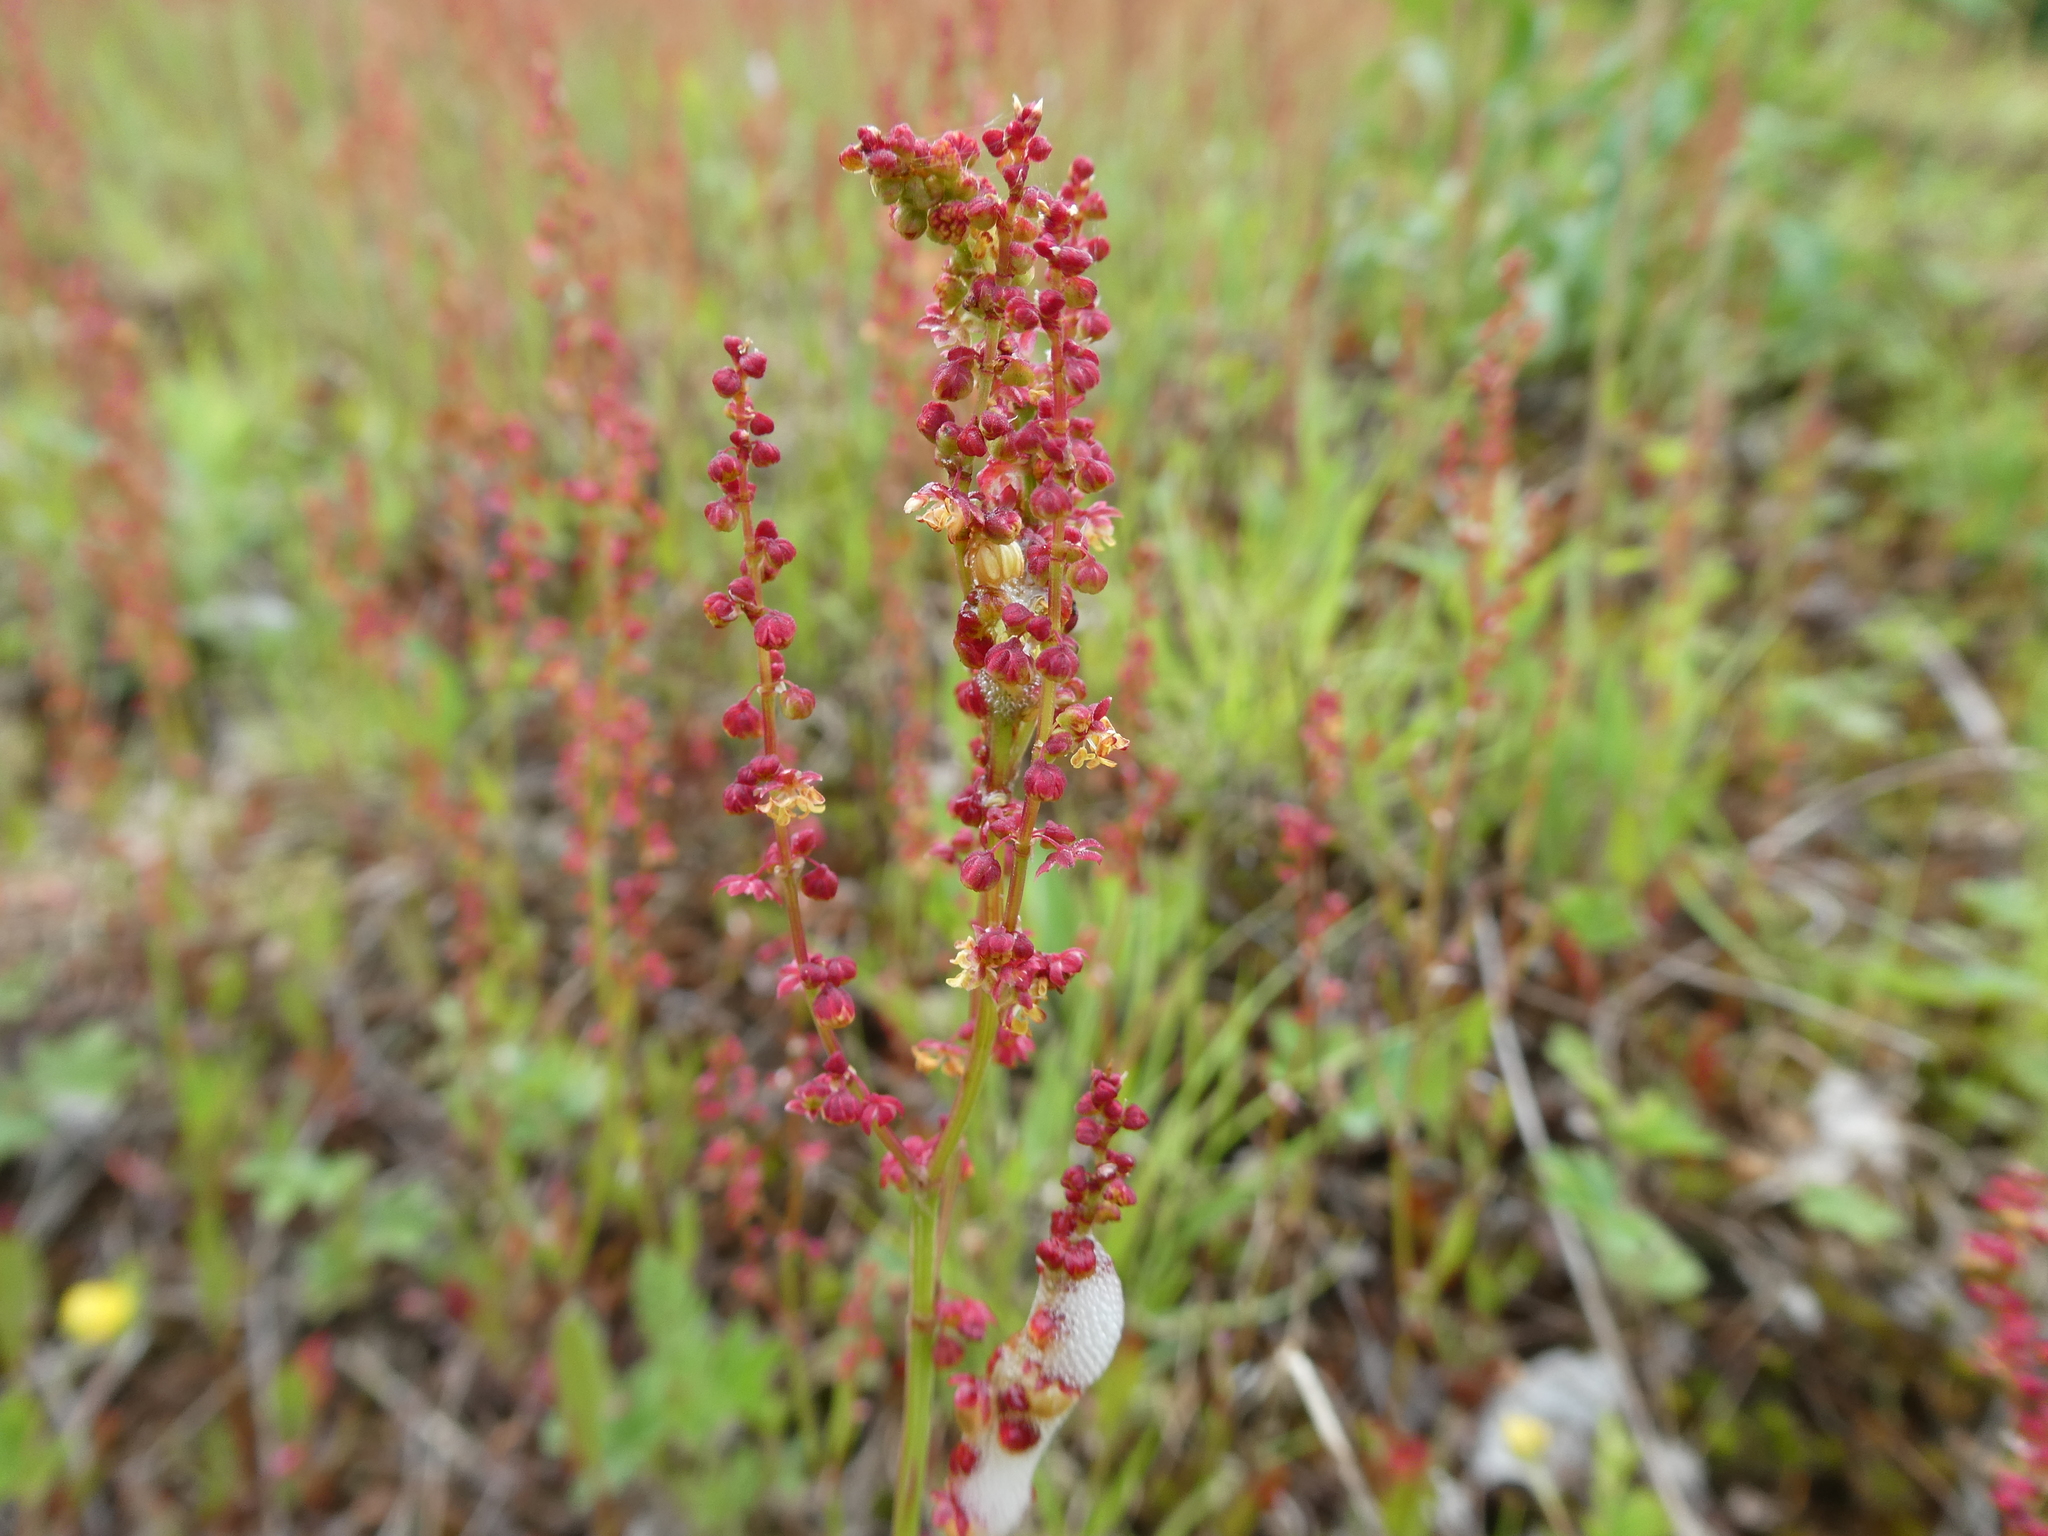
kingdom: Plantae
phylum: Tracheophyta
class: Magnoliopsida
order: Caryophyllales
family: Polygonaceae
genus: Rumex
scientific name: Rumex acetosella
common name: Common sheep sorrel
